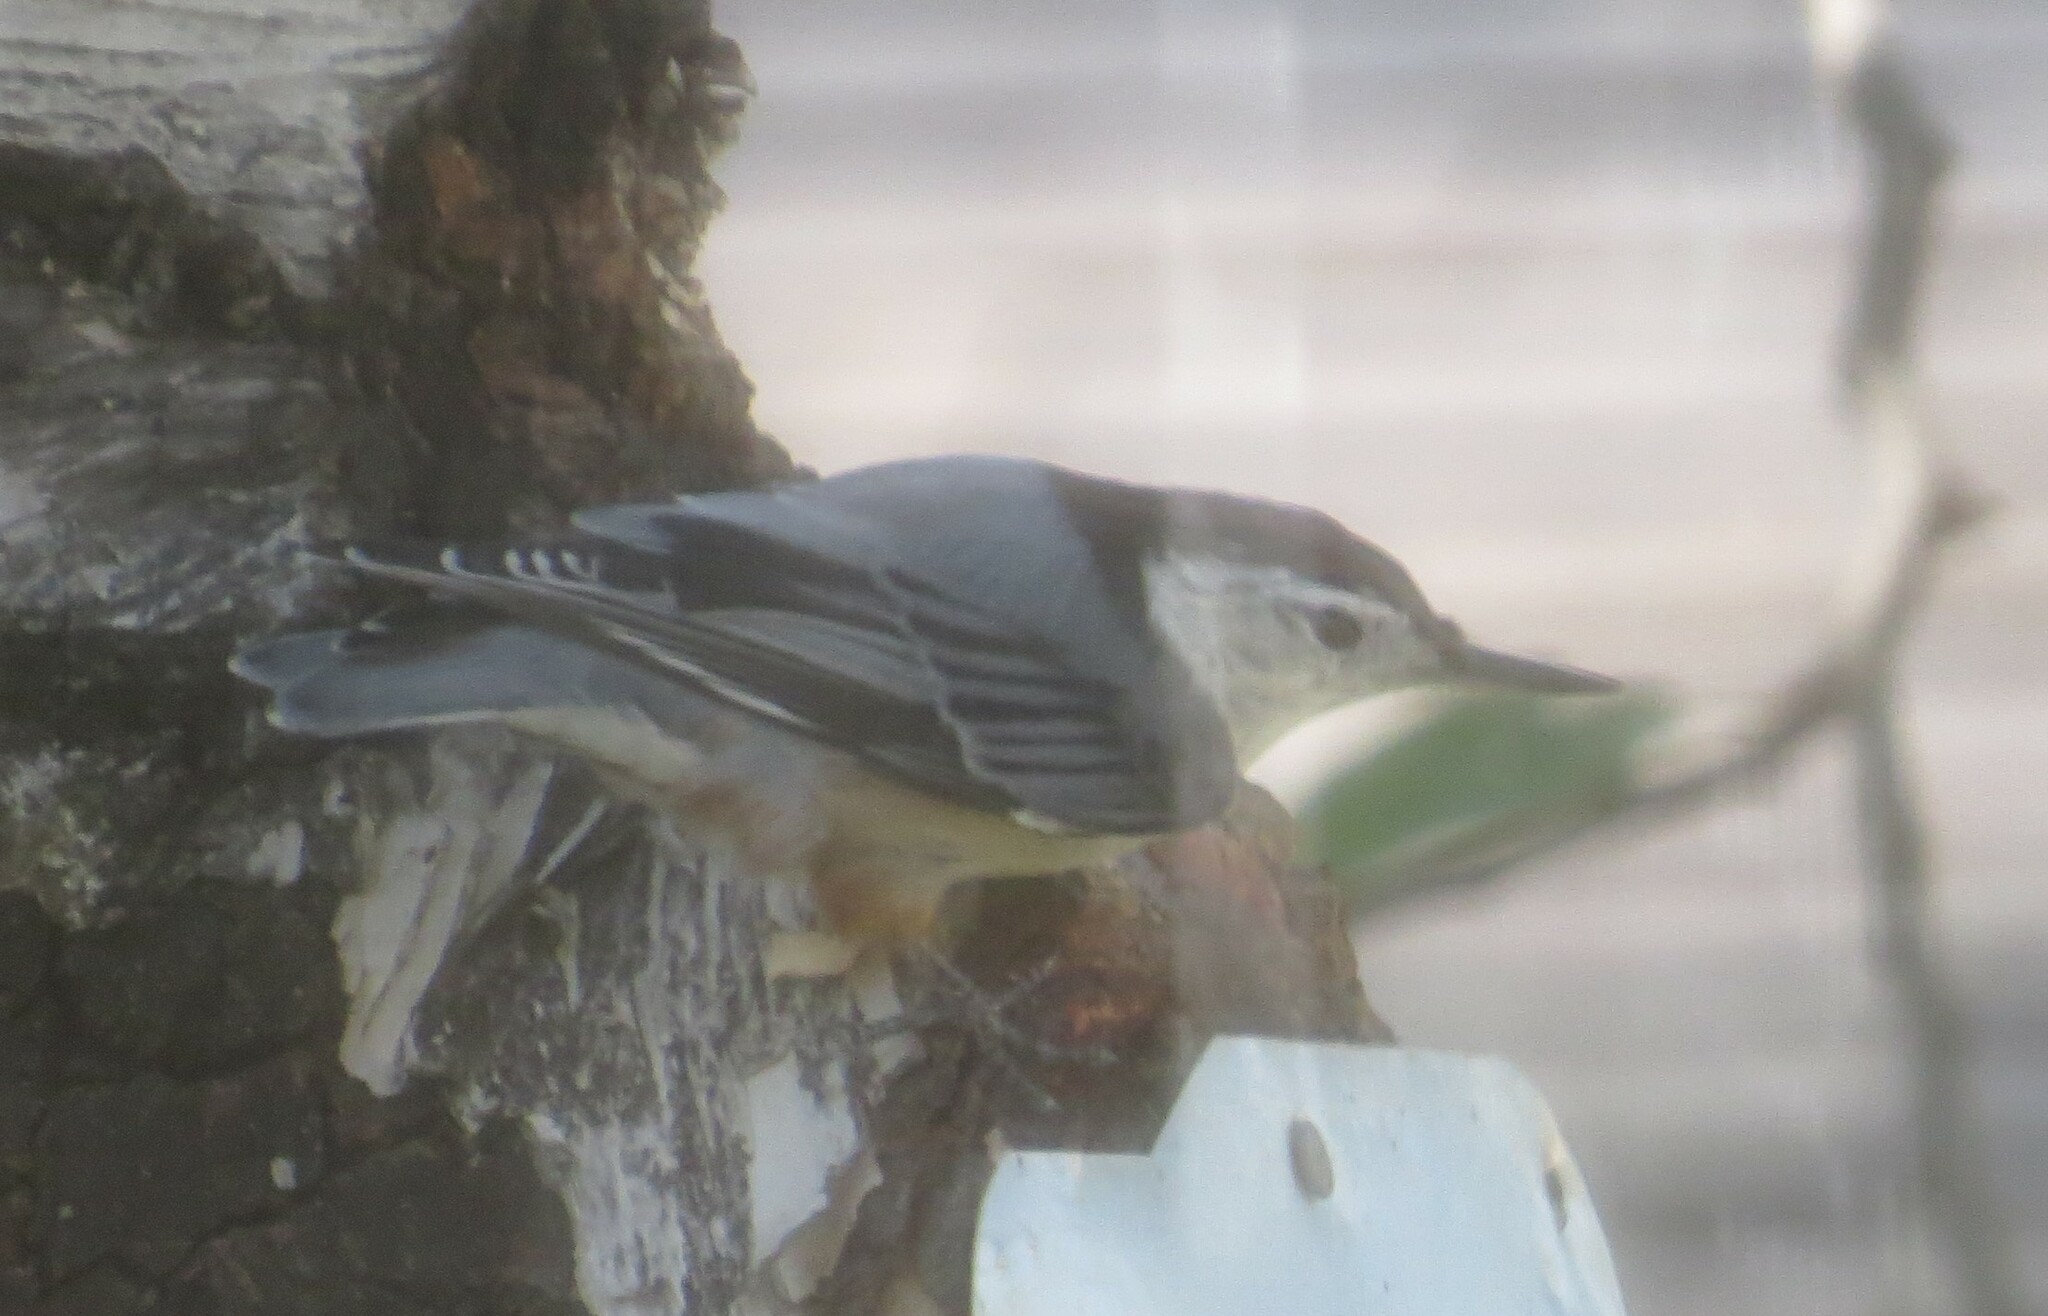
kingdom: Animalia
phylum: Chordata
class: Aves
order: Passeriformes
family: Sittidae
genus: Sitta
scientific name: Sitta carolinensis
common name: White-breasted nuthatch
